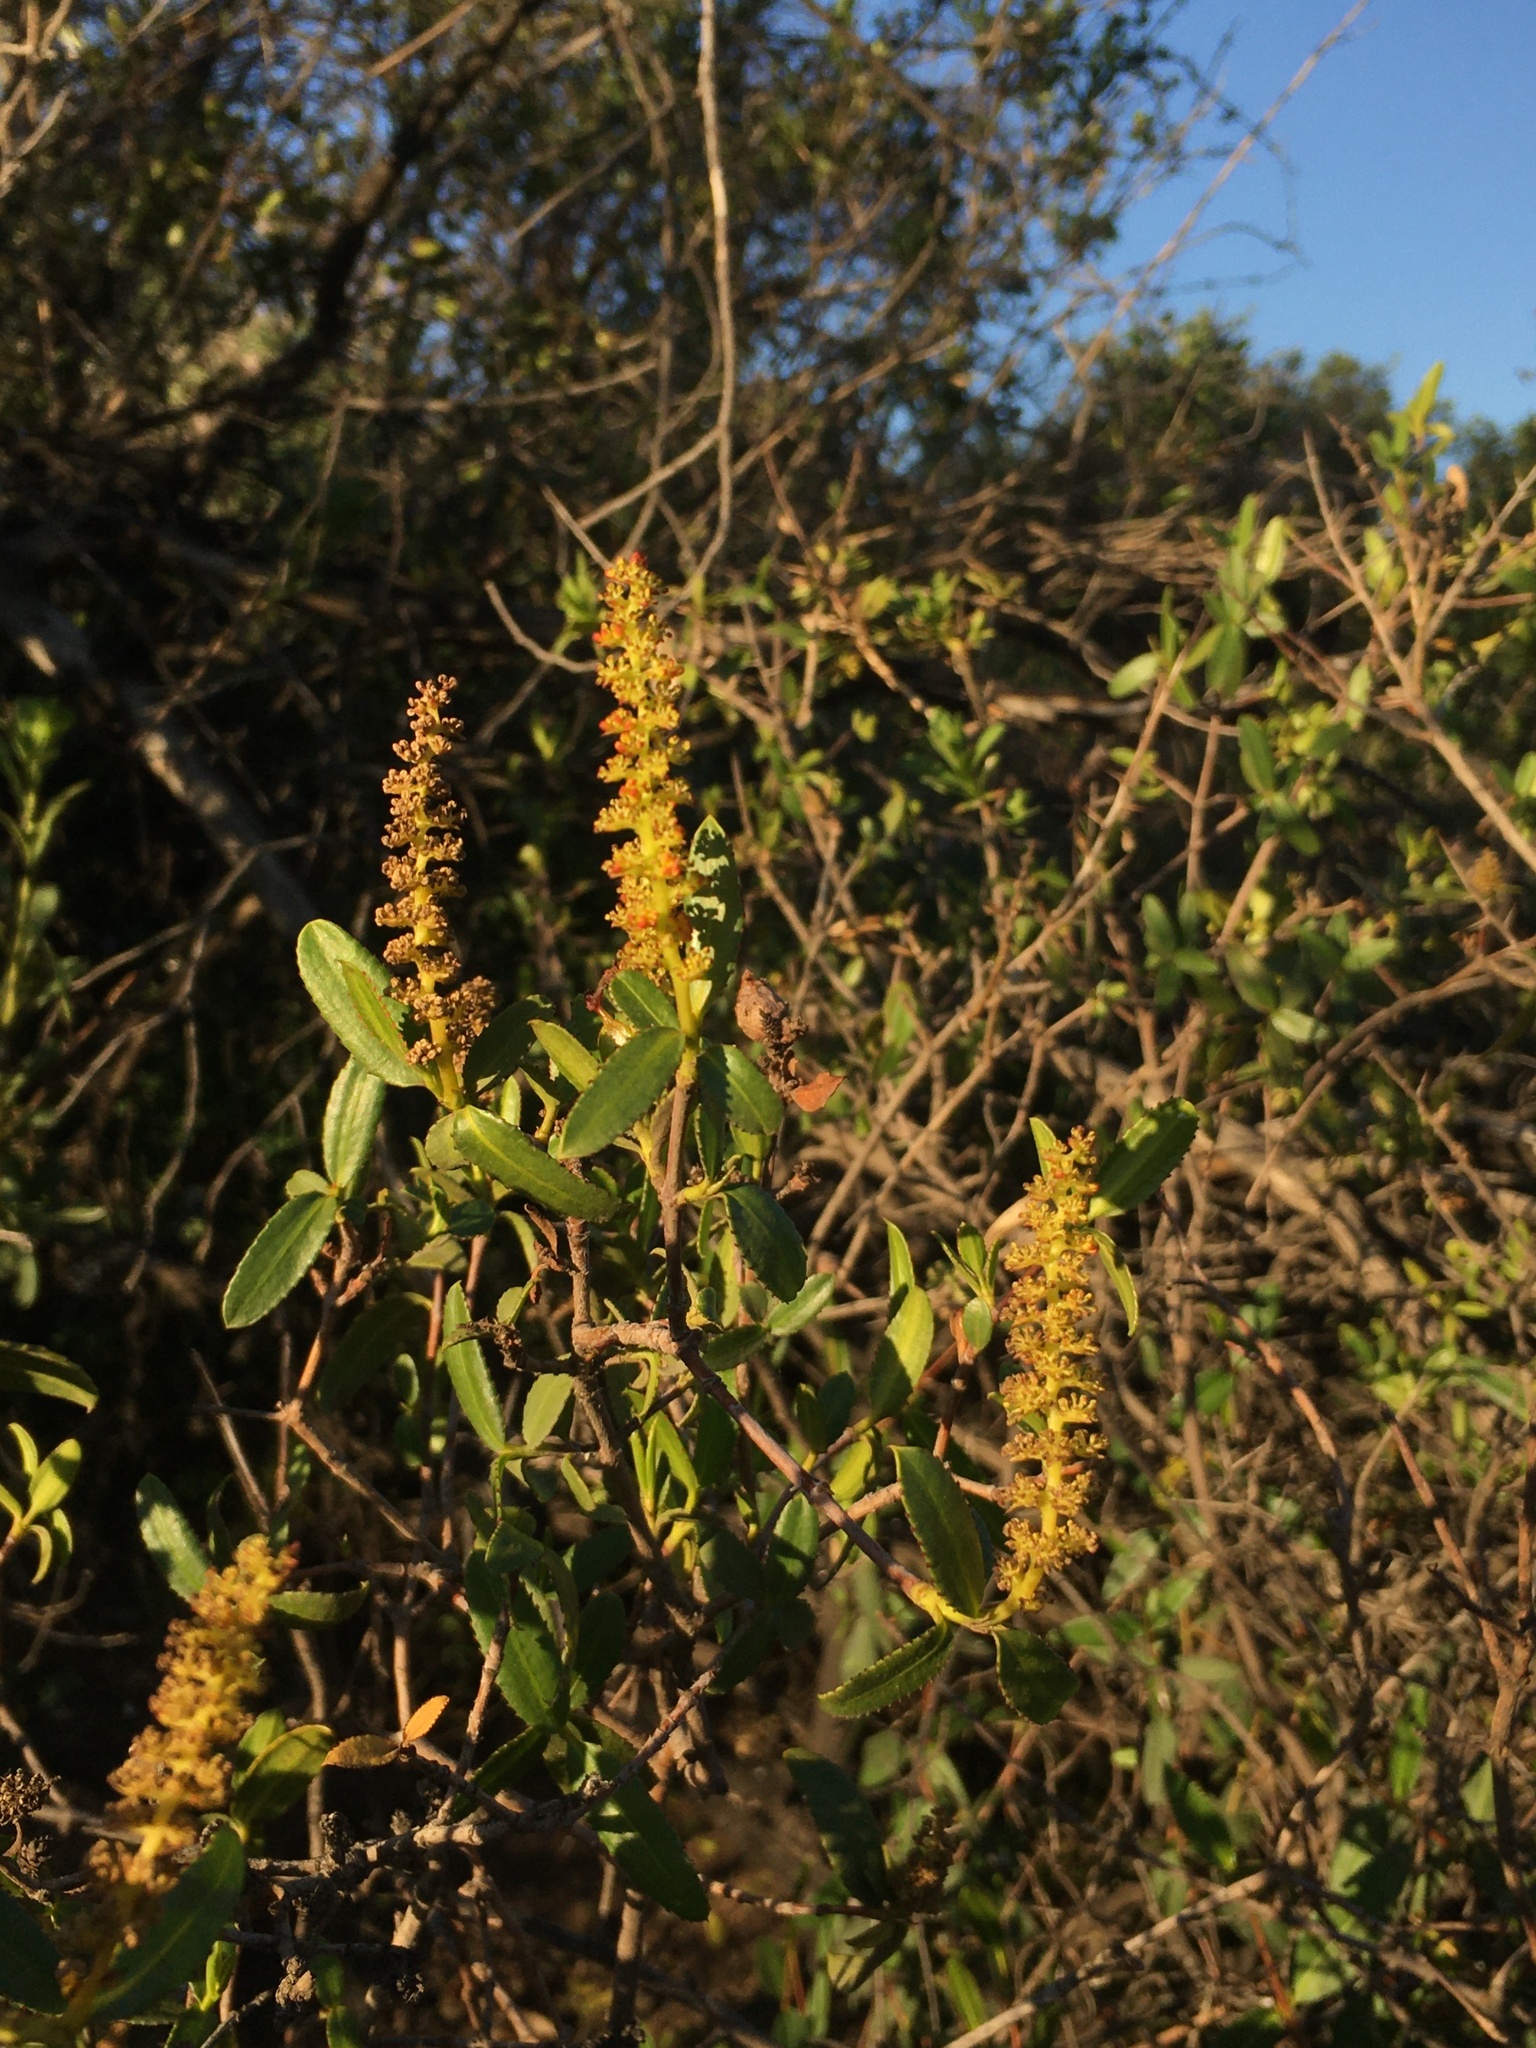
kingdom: Plantae
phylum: Tracheophyta
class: Magnoliopsida
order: Malpighiales
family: Euphorbiaceae
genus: Colliguaja
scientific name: Colliguaja odorifera
